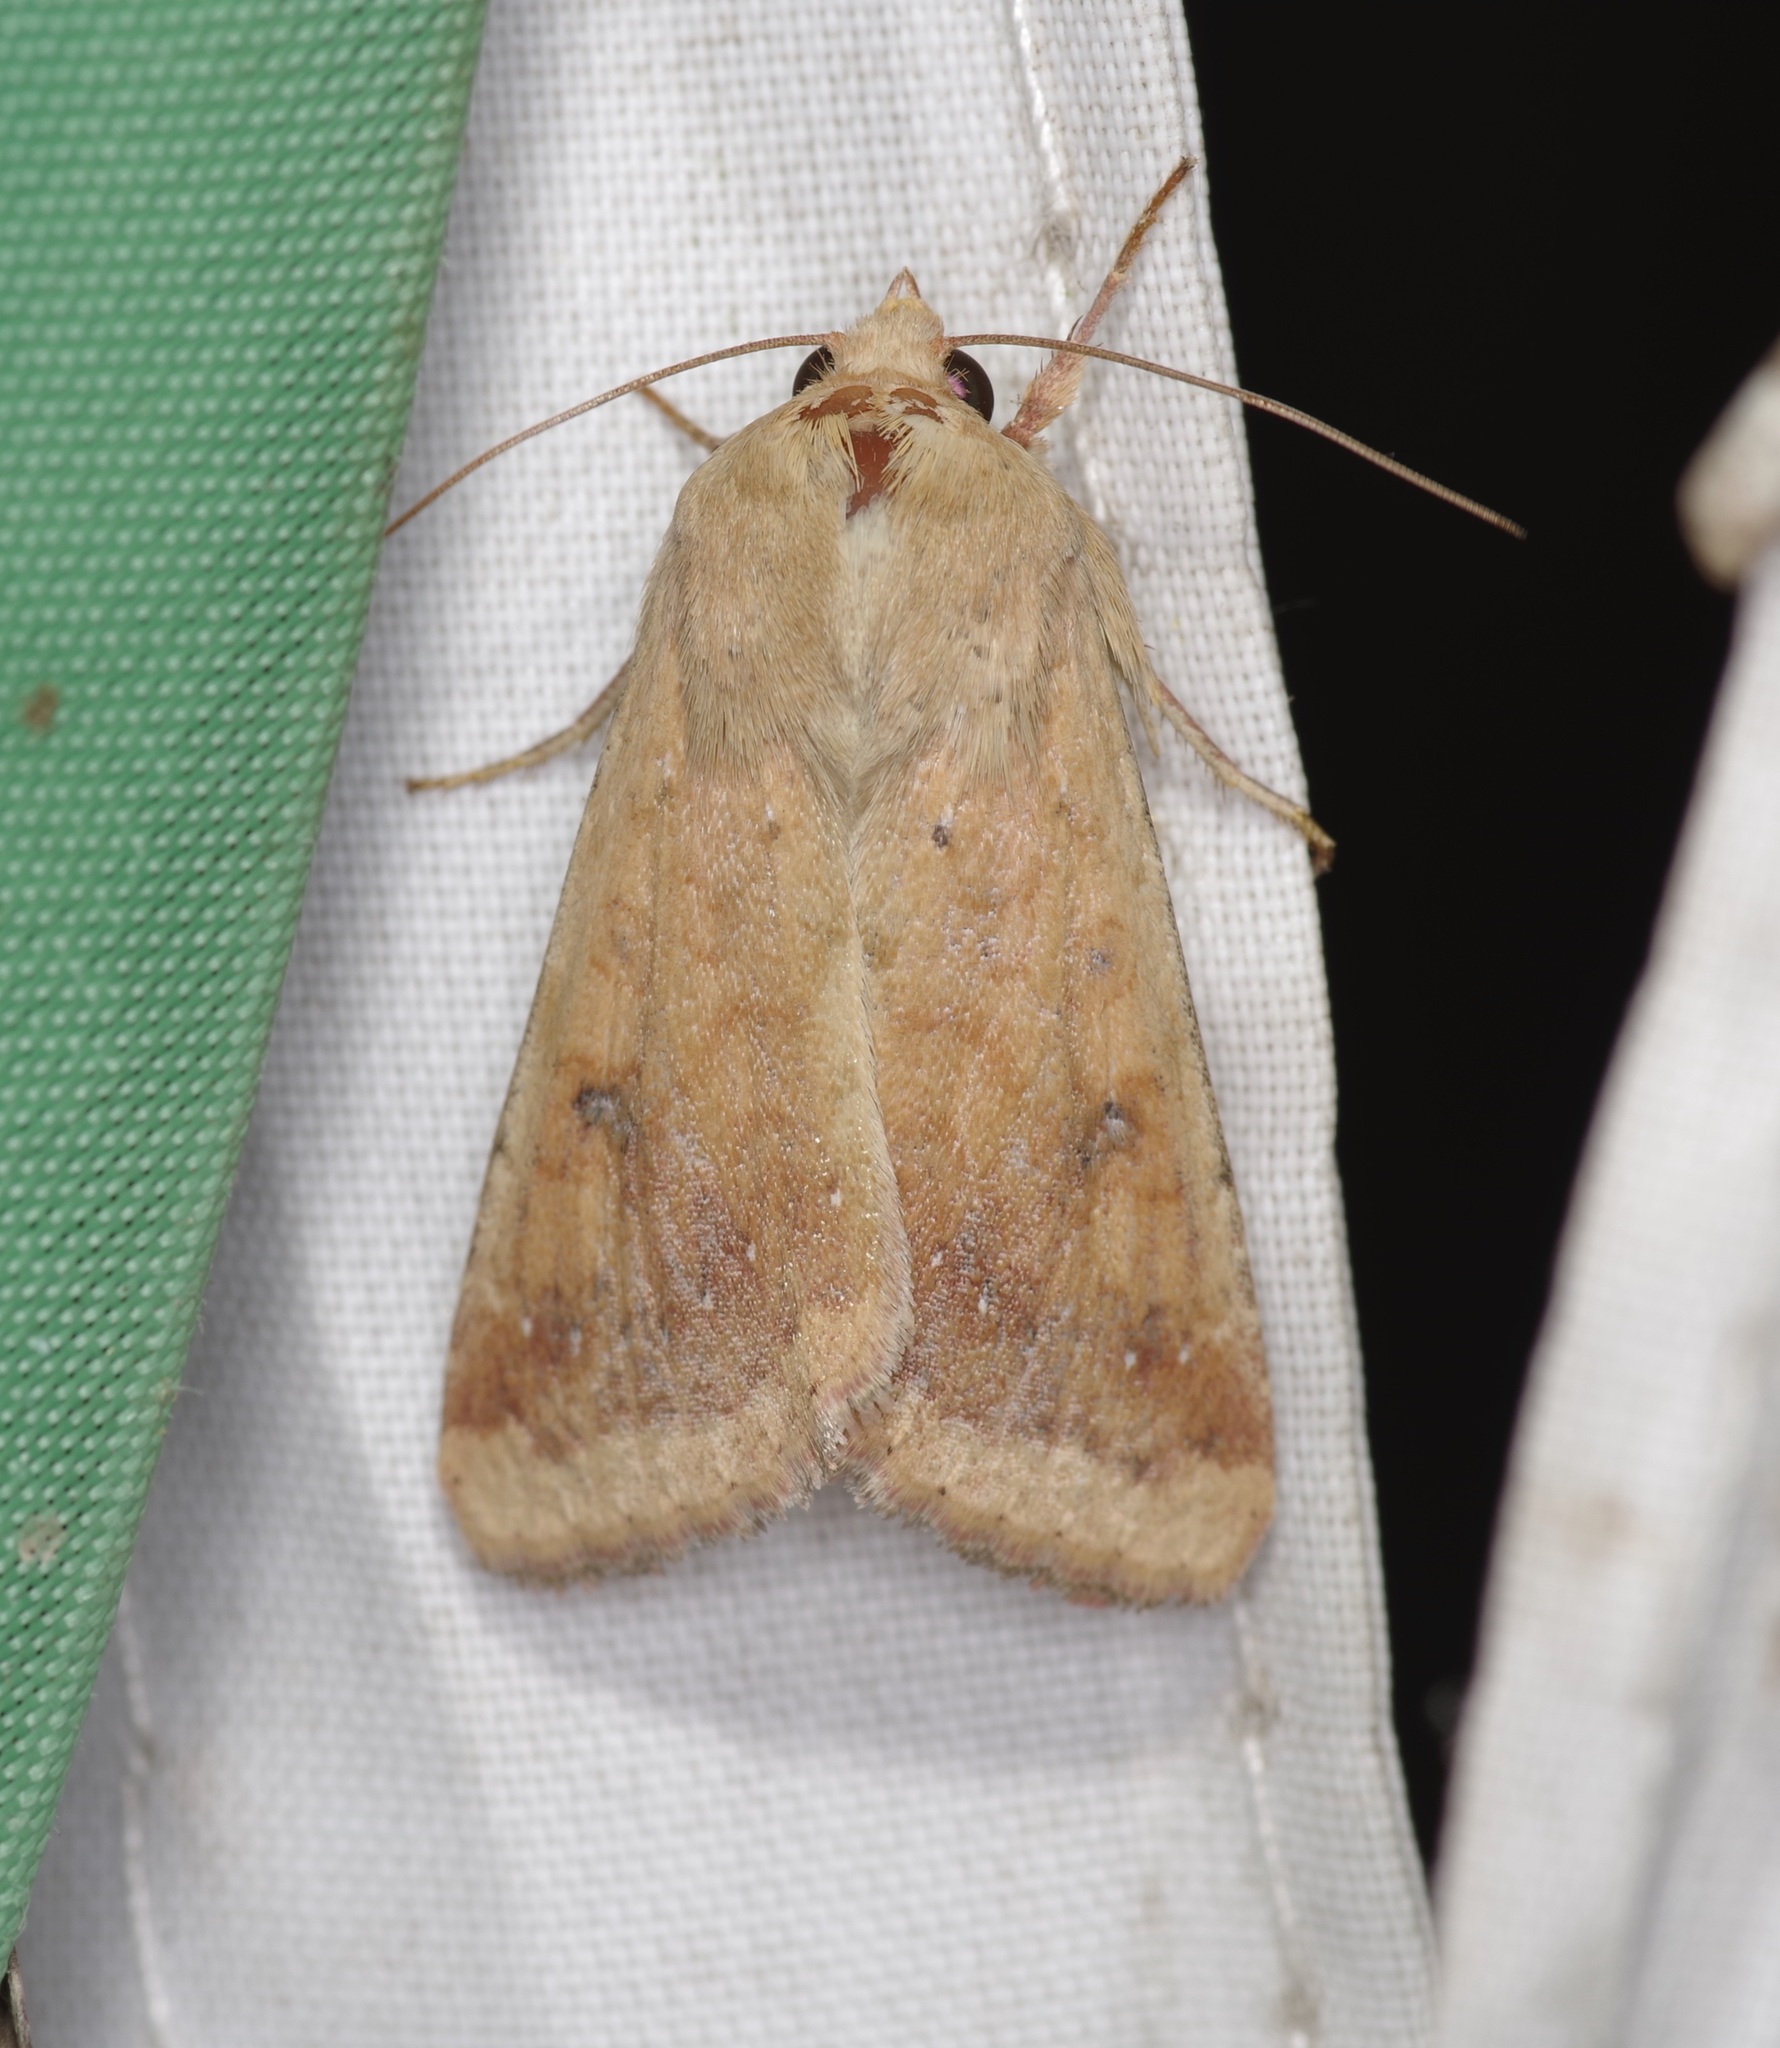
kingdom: Animalia
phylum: Arthropoda
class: Insecta
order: Lepidoptera
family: Noctuidae
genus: Helicoverpa
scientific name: Helicoverpa zea
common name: Bollworm
